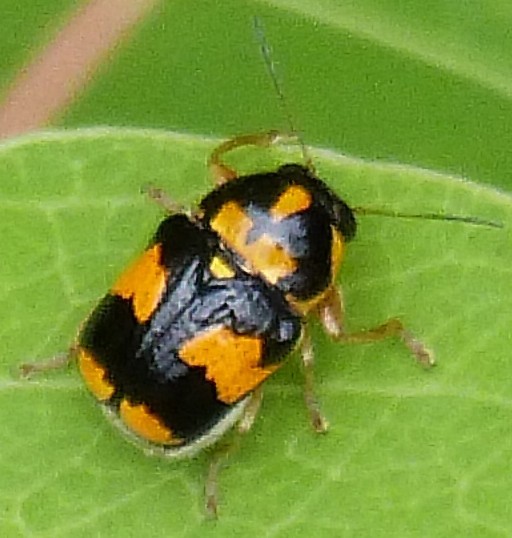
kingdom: Animalia
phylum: Arthropoda
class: Insecta
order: Coleoptera
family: Chrysomelidae
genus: Griburius
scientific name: Griburius scutellaris
